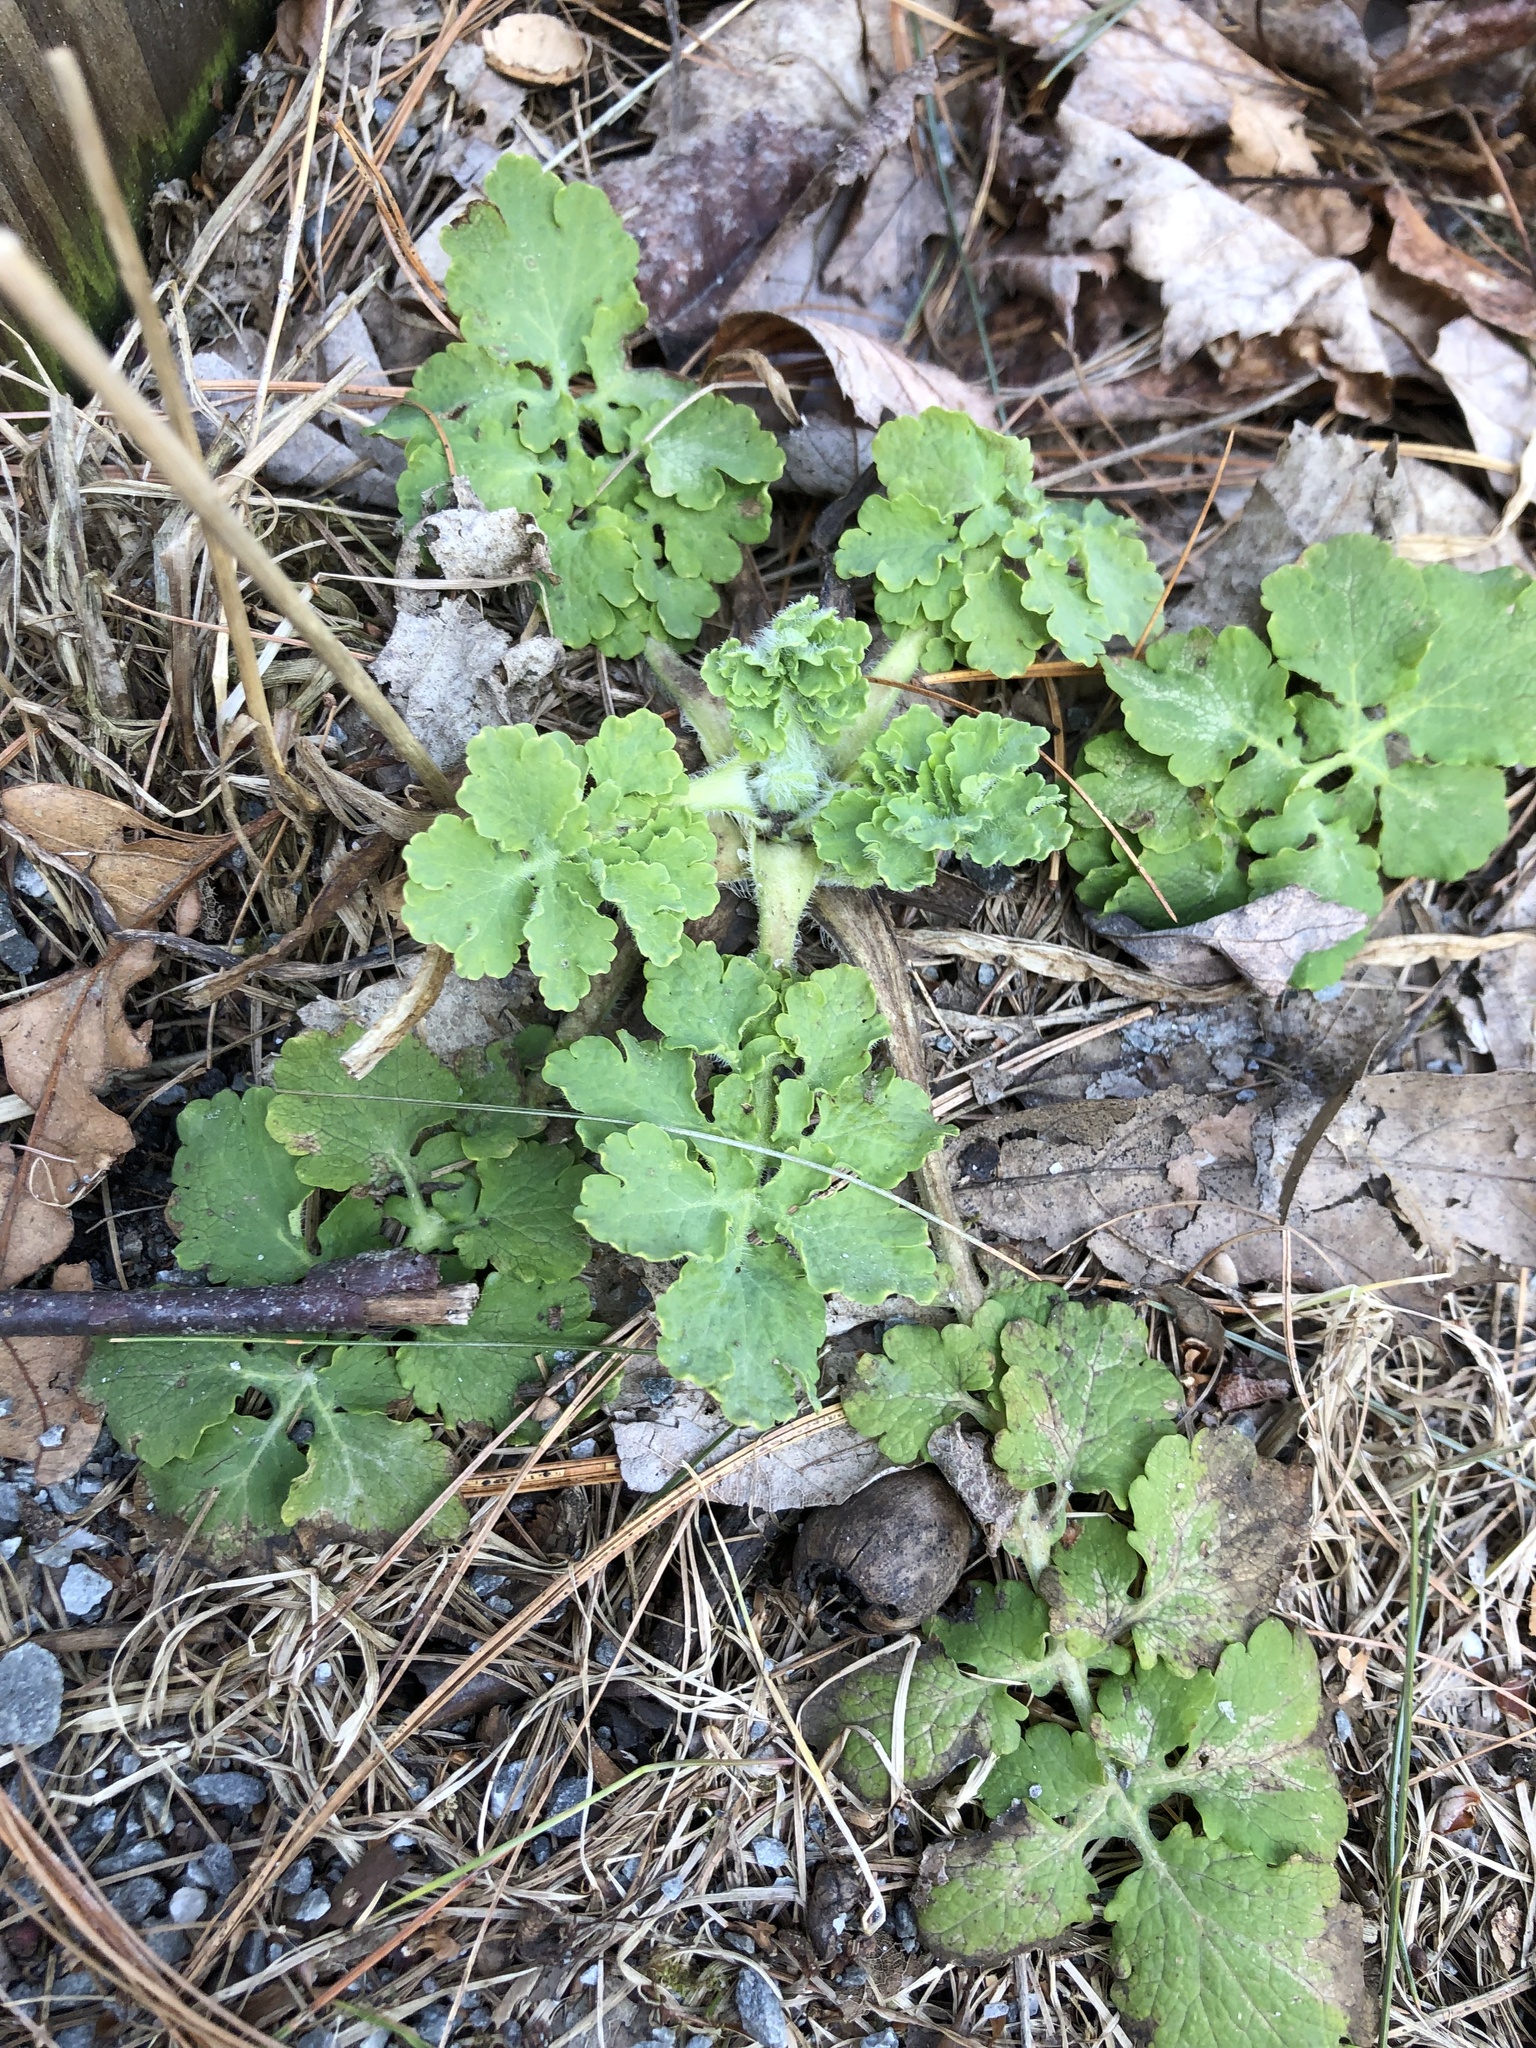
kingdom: Plantae
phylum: Tracheophyta
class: Magnoliopsida
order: Ranunculales
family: Papaveraceae
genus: Chelidonium
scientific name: Chelidonium majus
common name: Greater celandine
